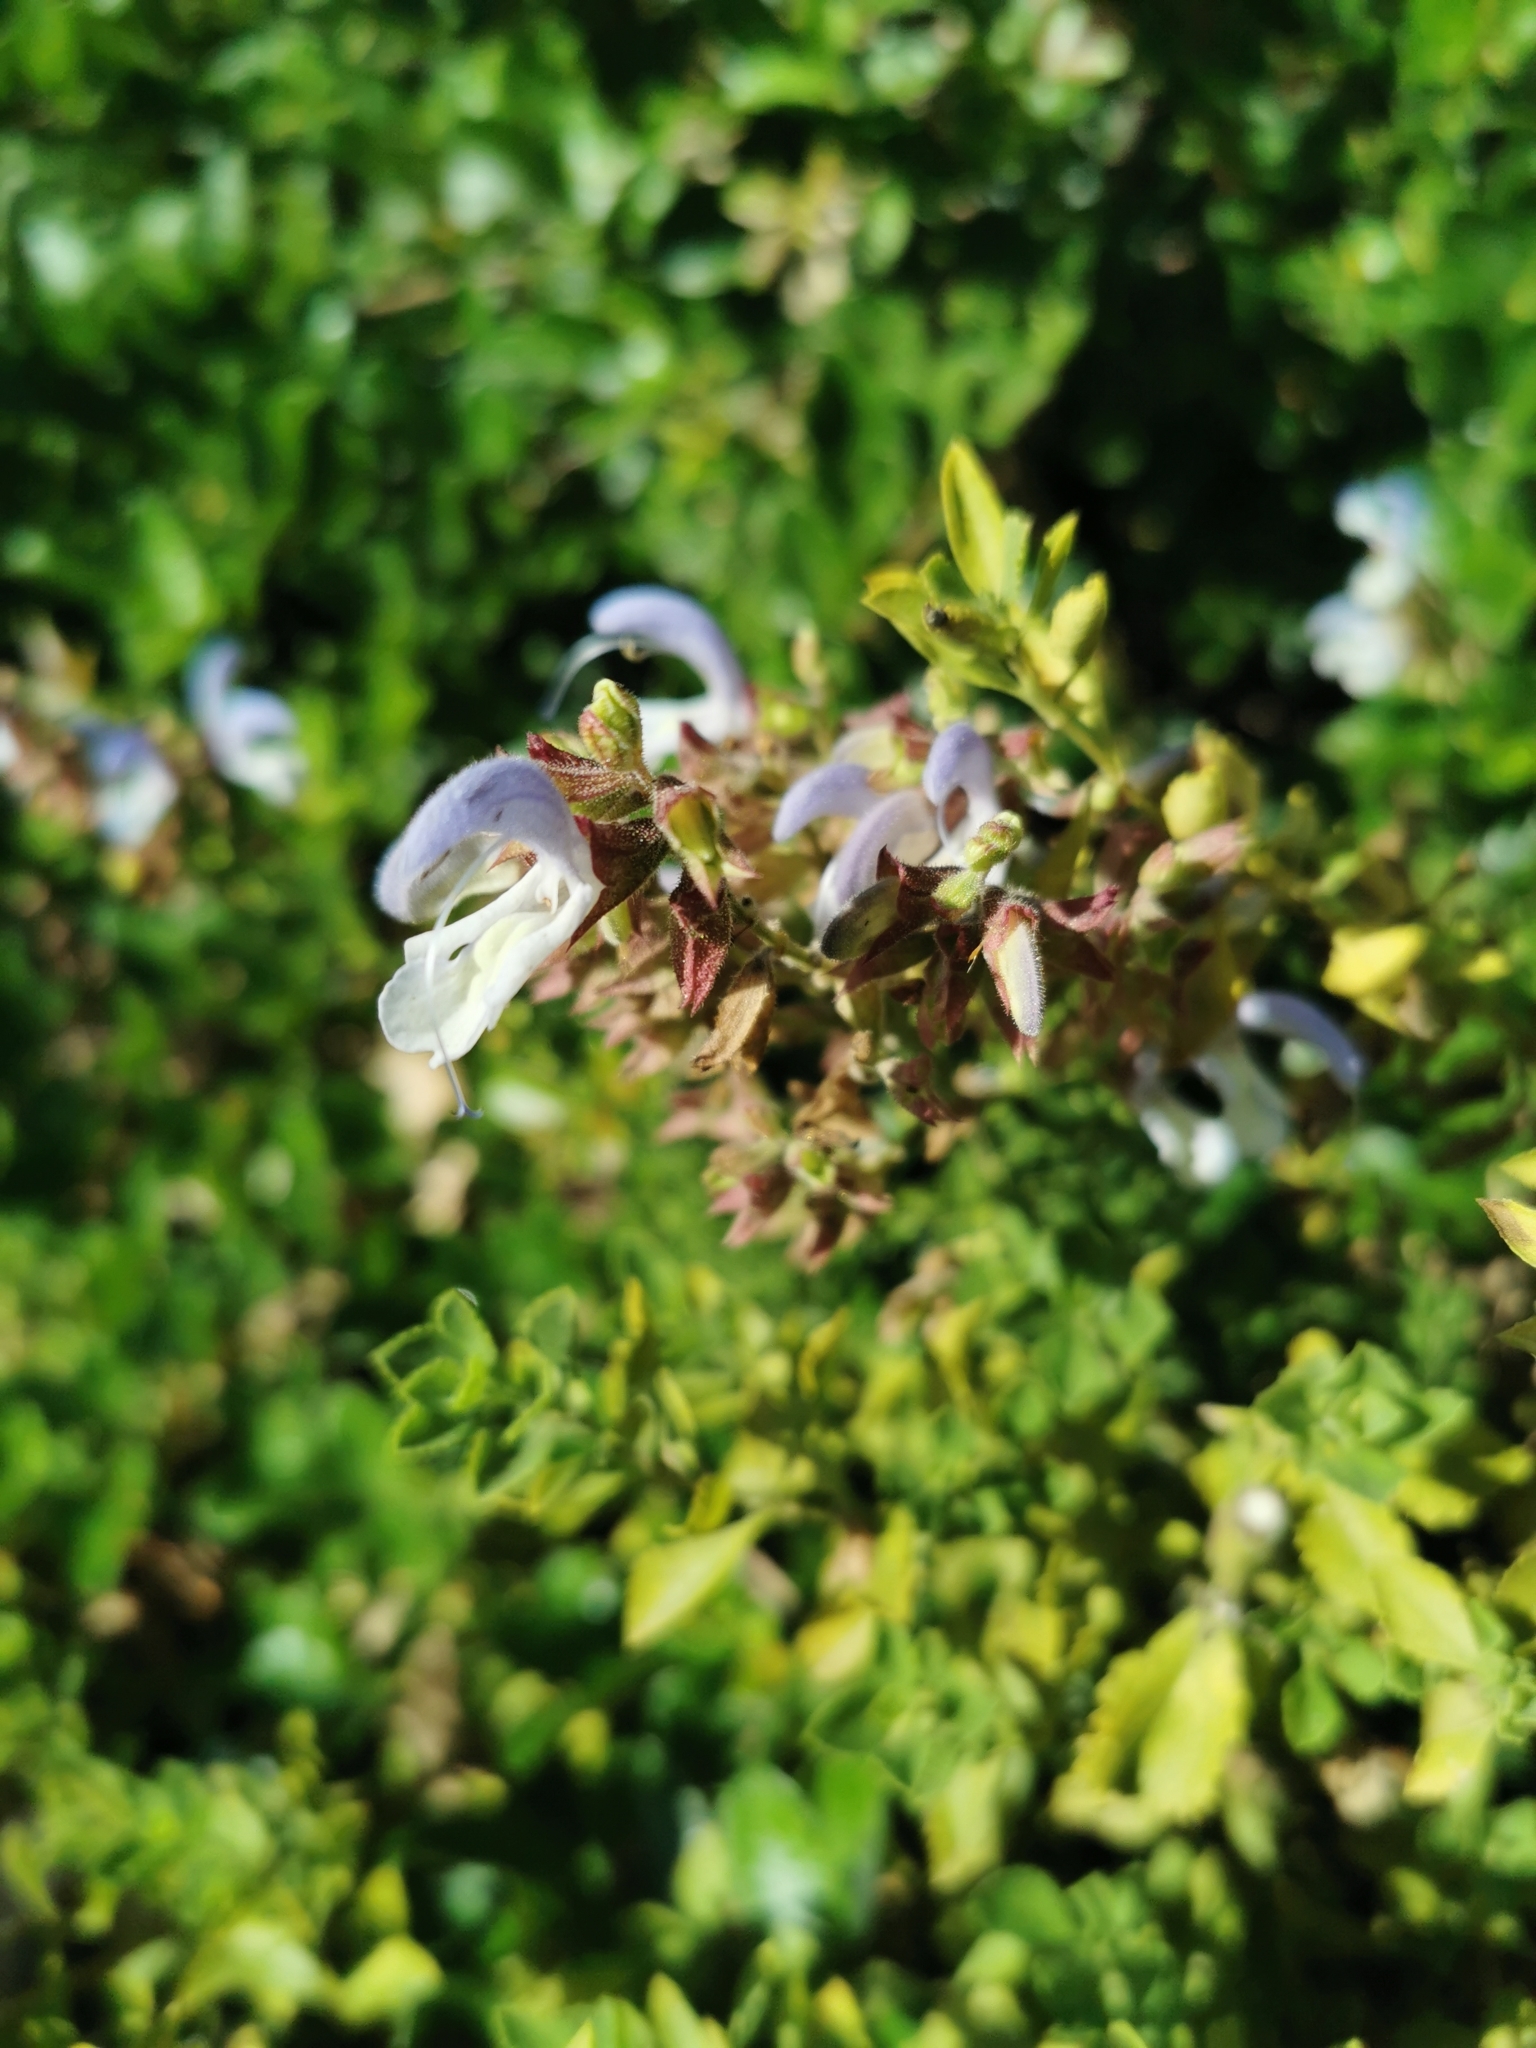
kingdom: Plantae
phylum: Tracheophyta
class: Magnoliopsida
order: Lamiales
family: Lamiaceae
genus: Salvia
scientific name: Salvia chamelaeagnea
